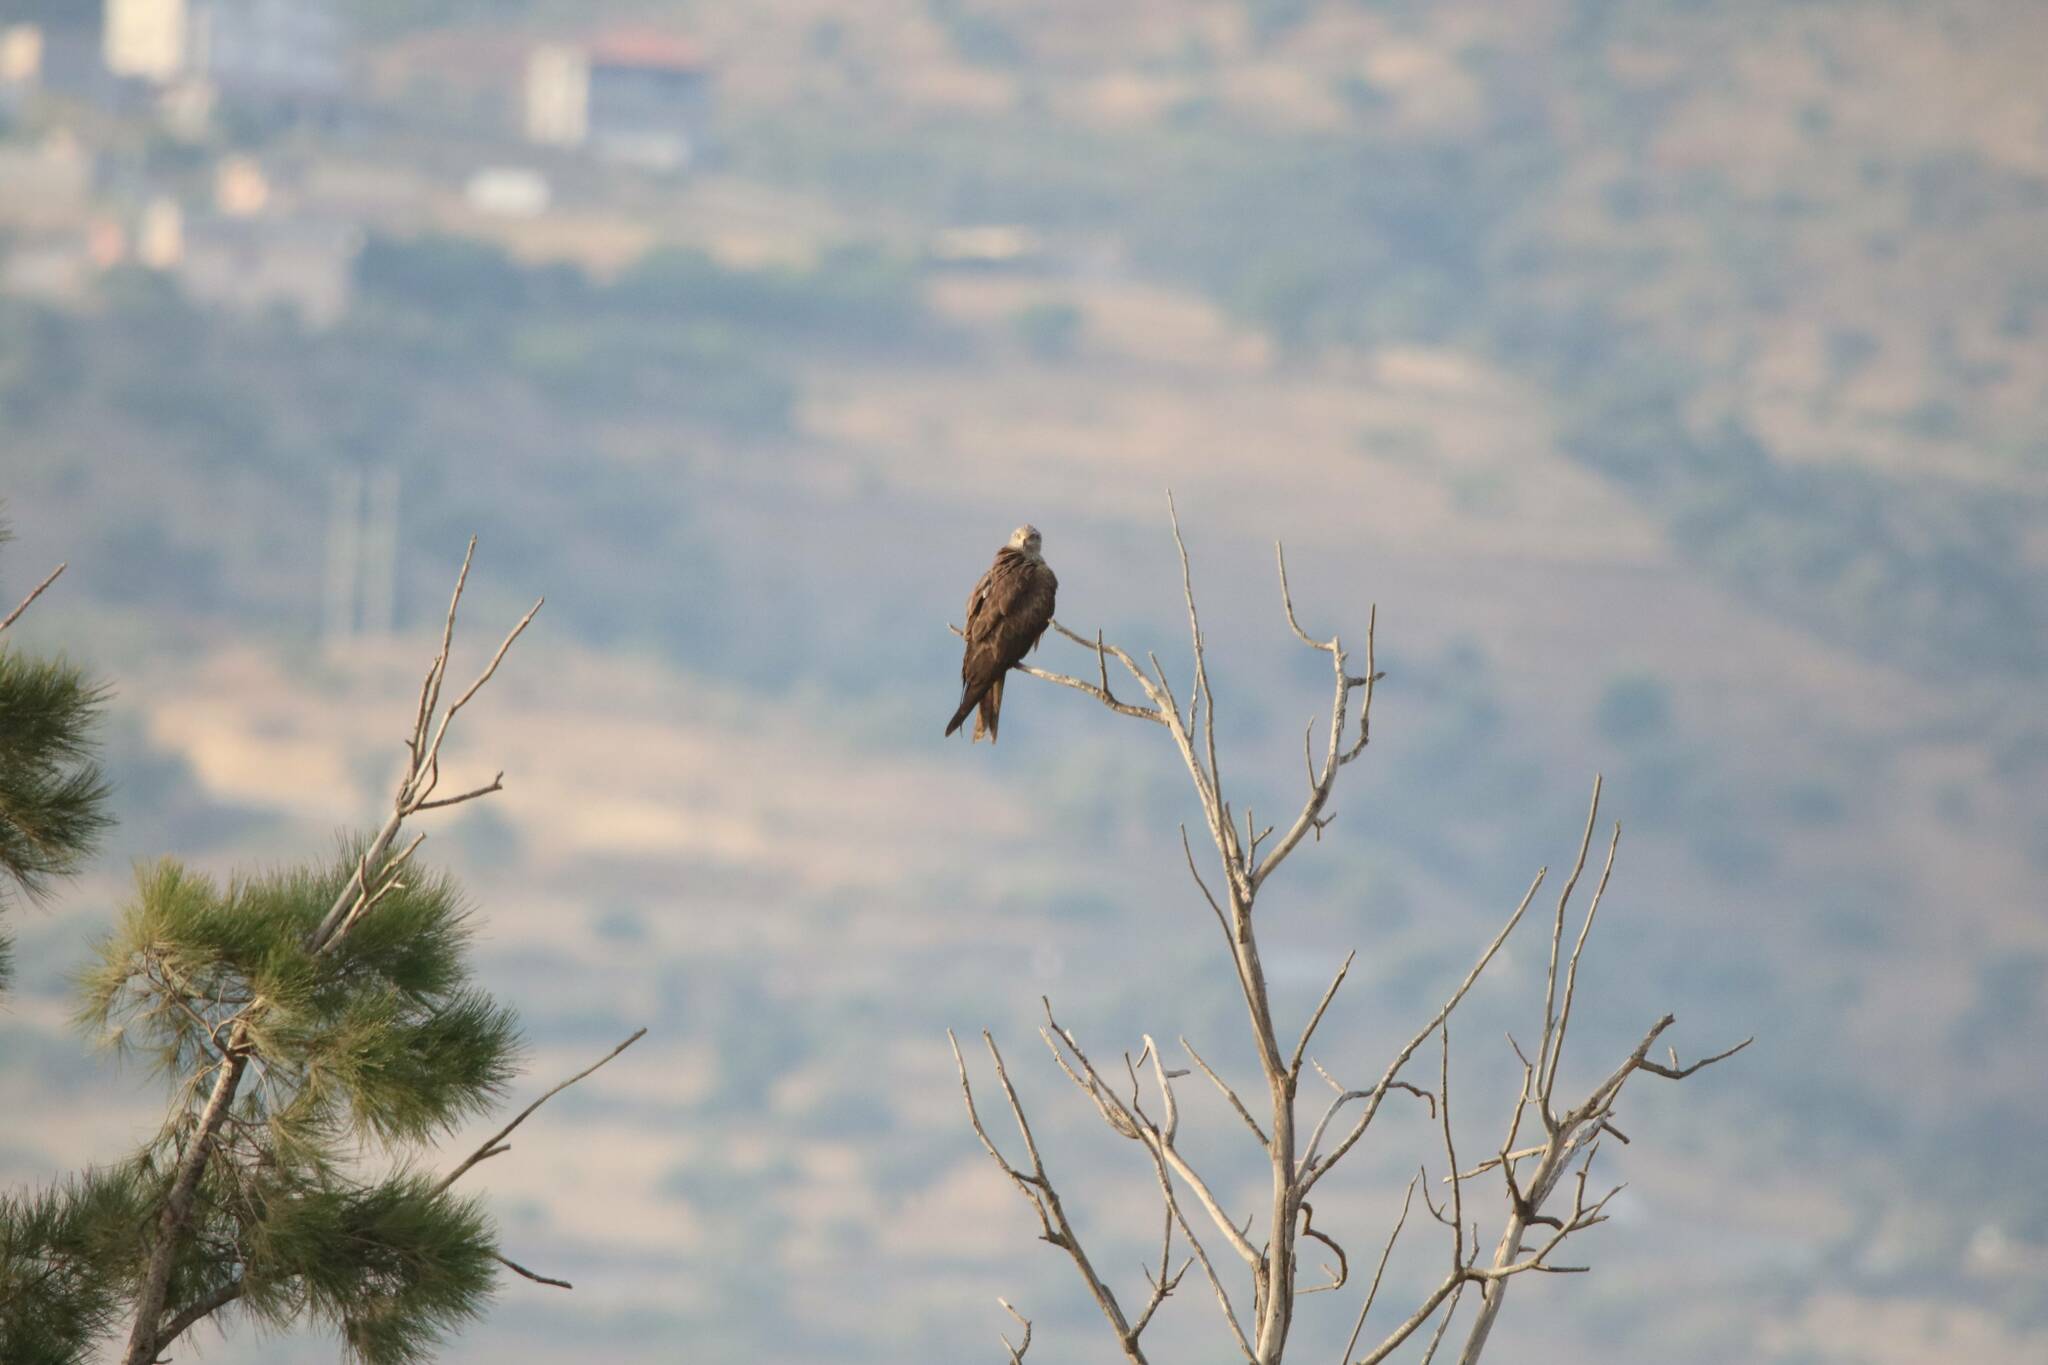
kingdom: Animalia
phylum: Chordata
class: Aves
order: Accipitriformes
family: Accipitridae
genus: Milvus
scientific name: Milvus migrans
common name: Black kite
